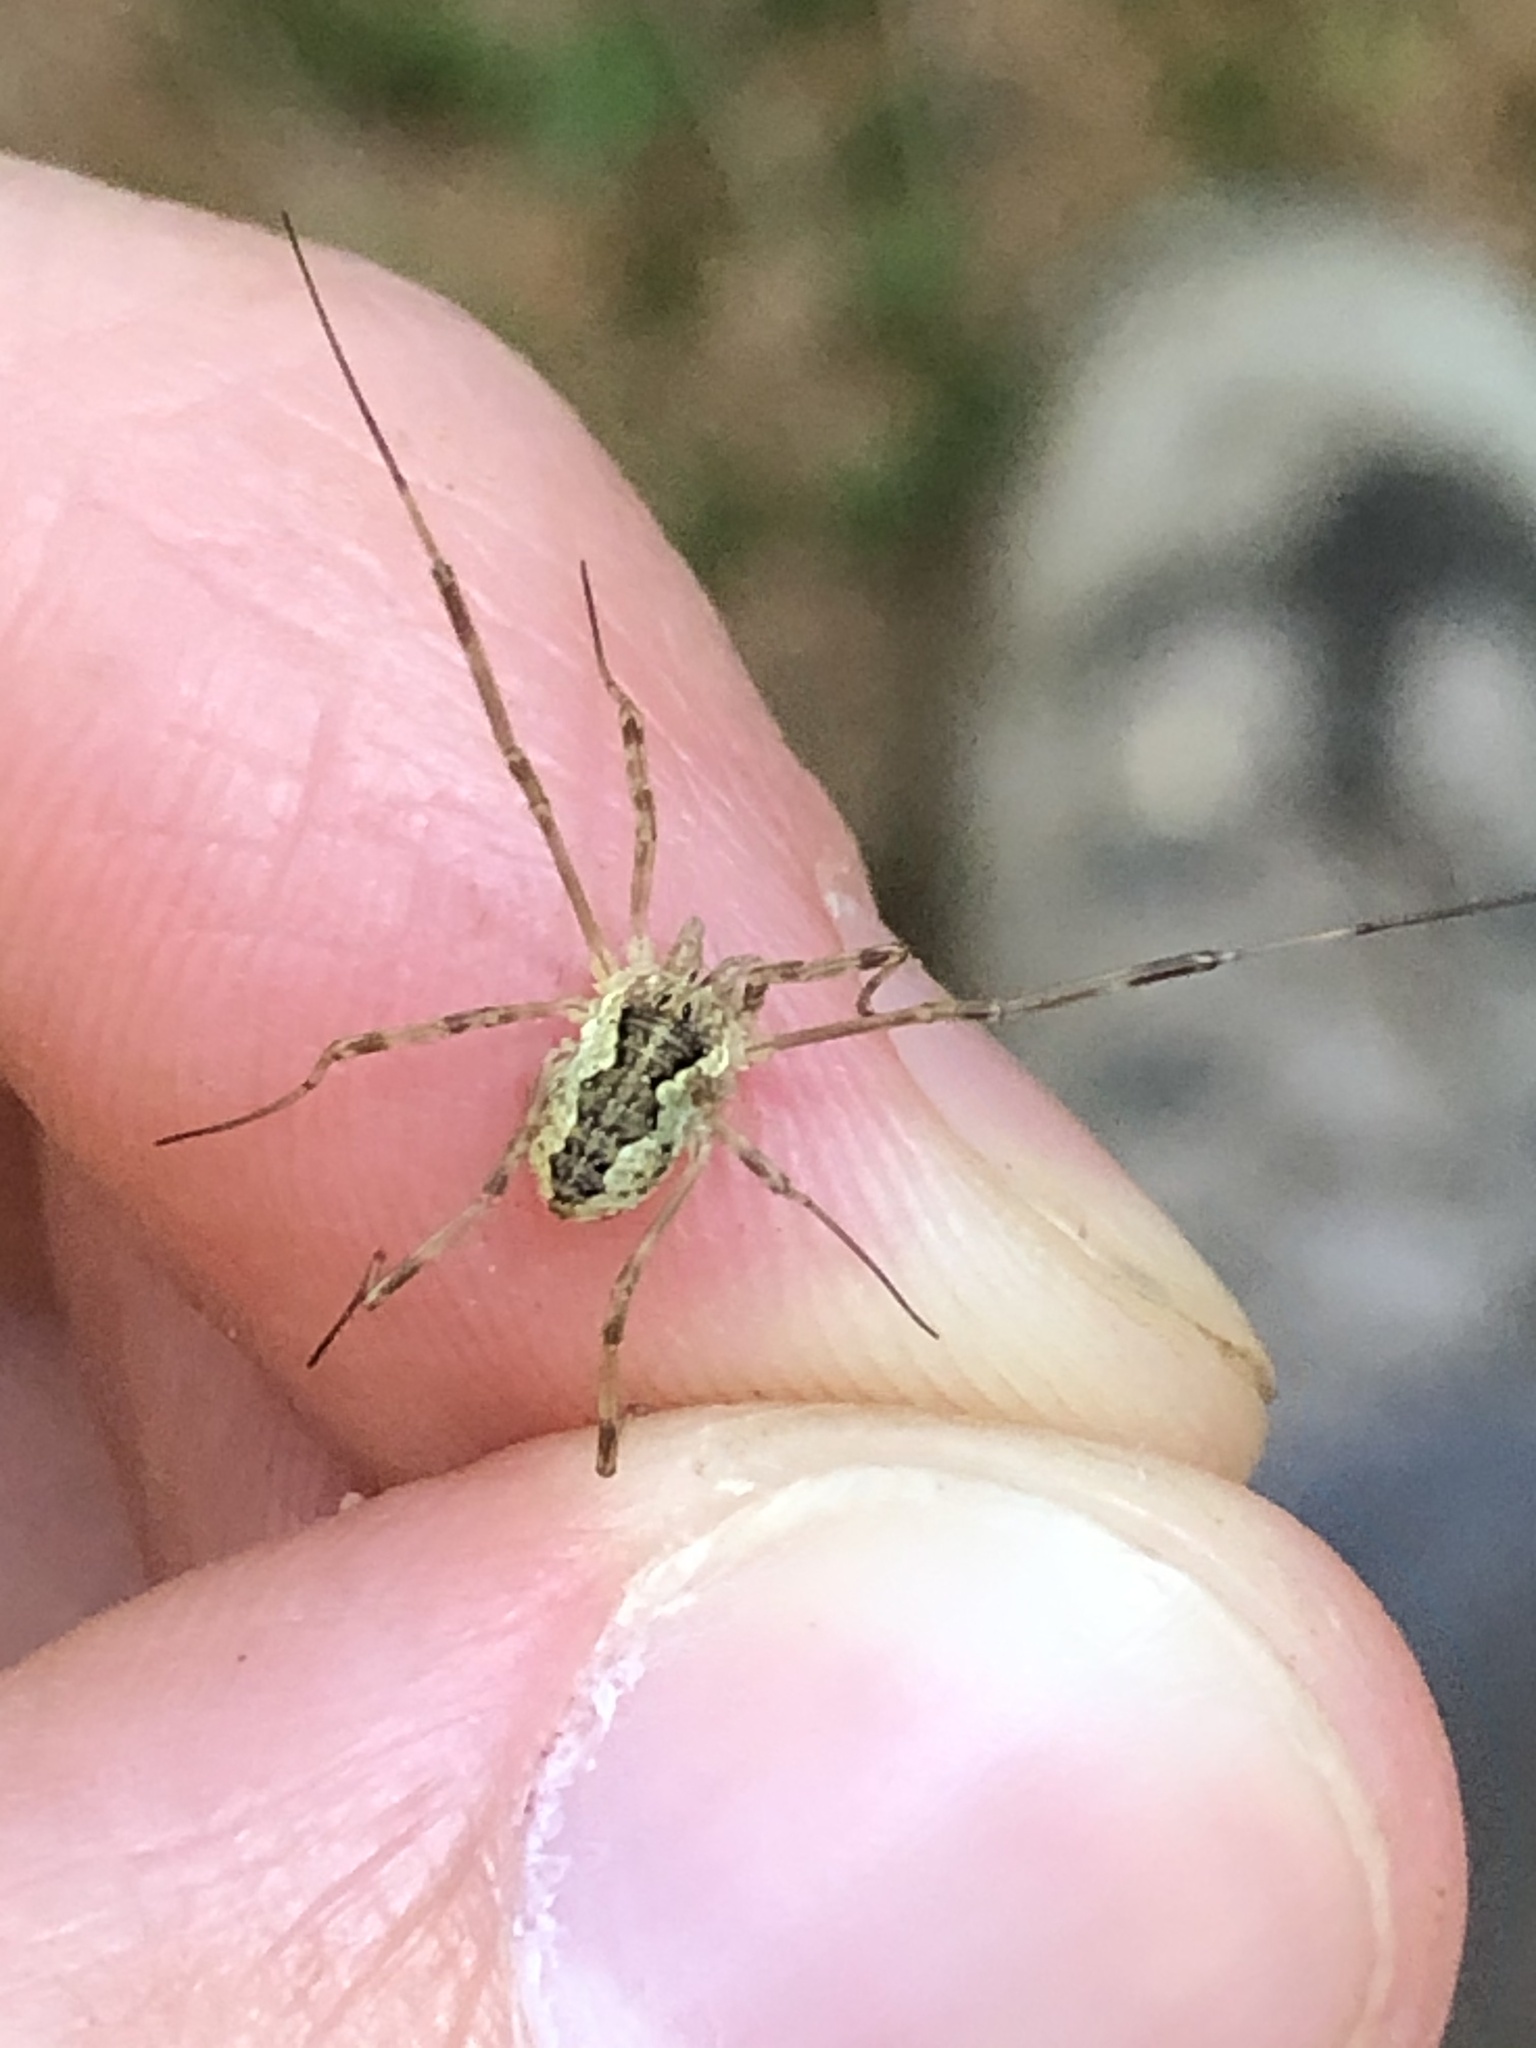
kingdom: Animalia
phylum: Arthropoda
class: Arachnida
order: Opiliones
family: Phalangiidae
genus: Mitopus
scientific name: Mitopus morio
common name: Saddleback harvestman
